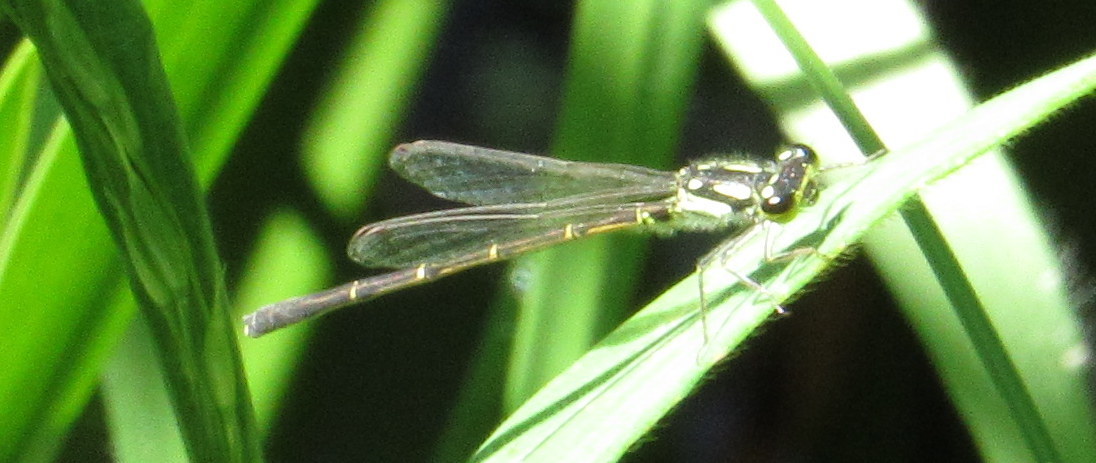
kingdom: Animalia
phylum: Arthropoda
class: Insecta
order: Odonata
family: Coenagrionidae
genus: Ischnura
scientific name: Ischnura posita
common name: Fragile forktail
